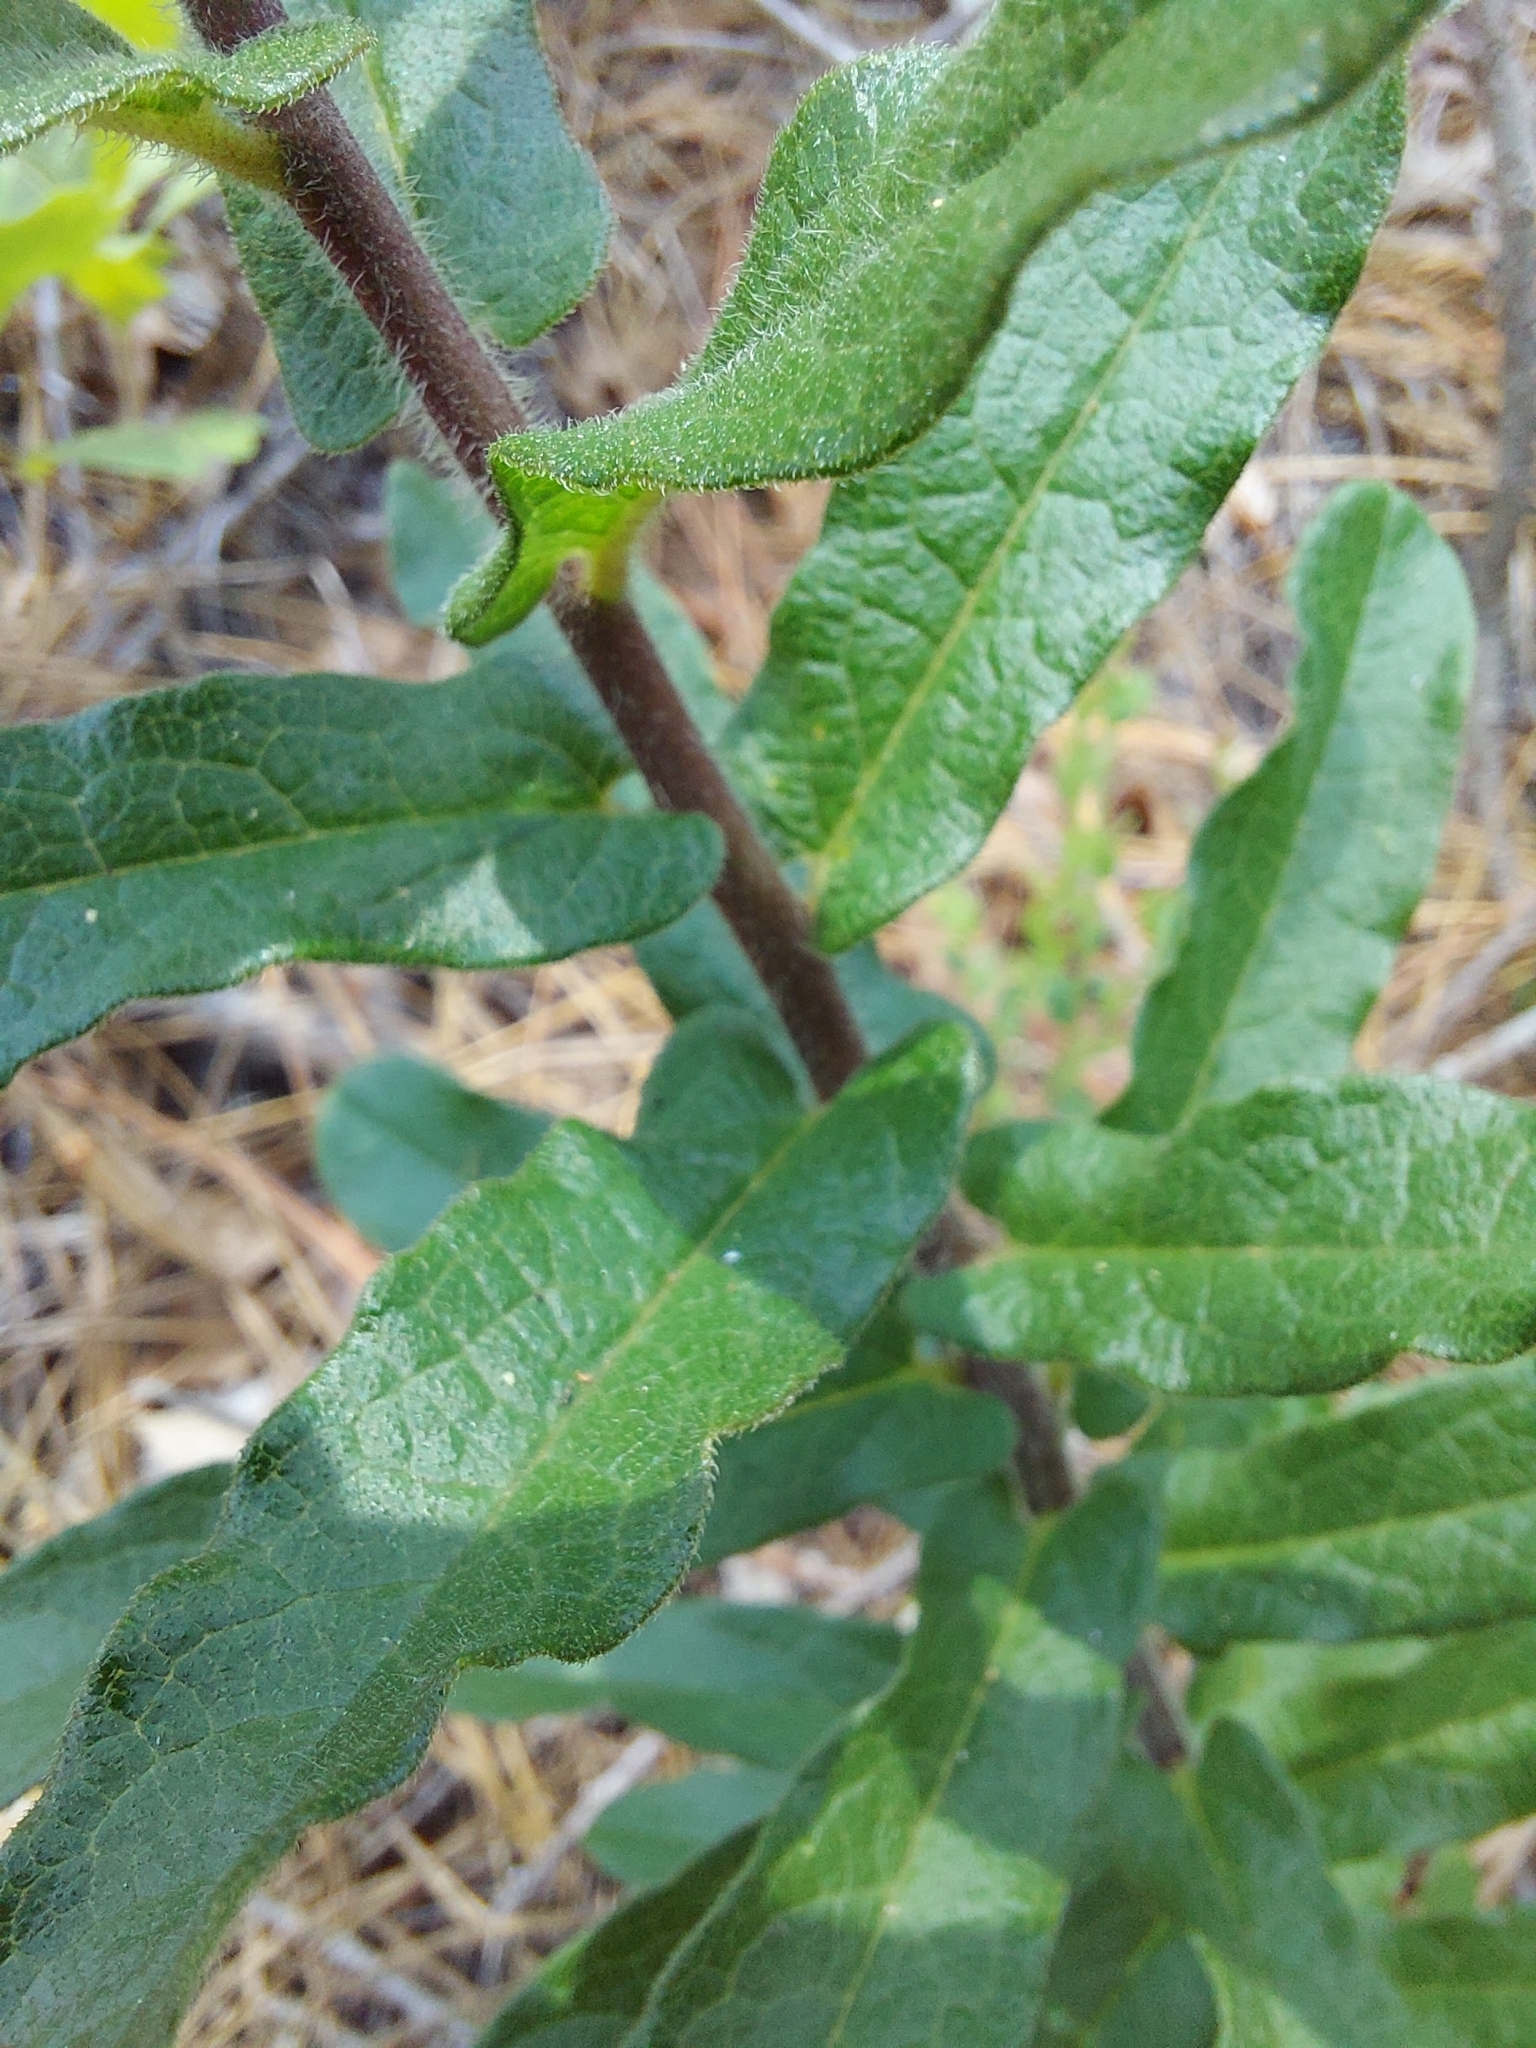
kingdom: Plantae
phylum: Tracheophyta
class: Magnoliopsida
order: Gentianales
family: Apocynaceae
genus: Asclepias
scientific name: Asclepias tuberosa
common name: Butterfly milkweed
